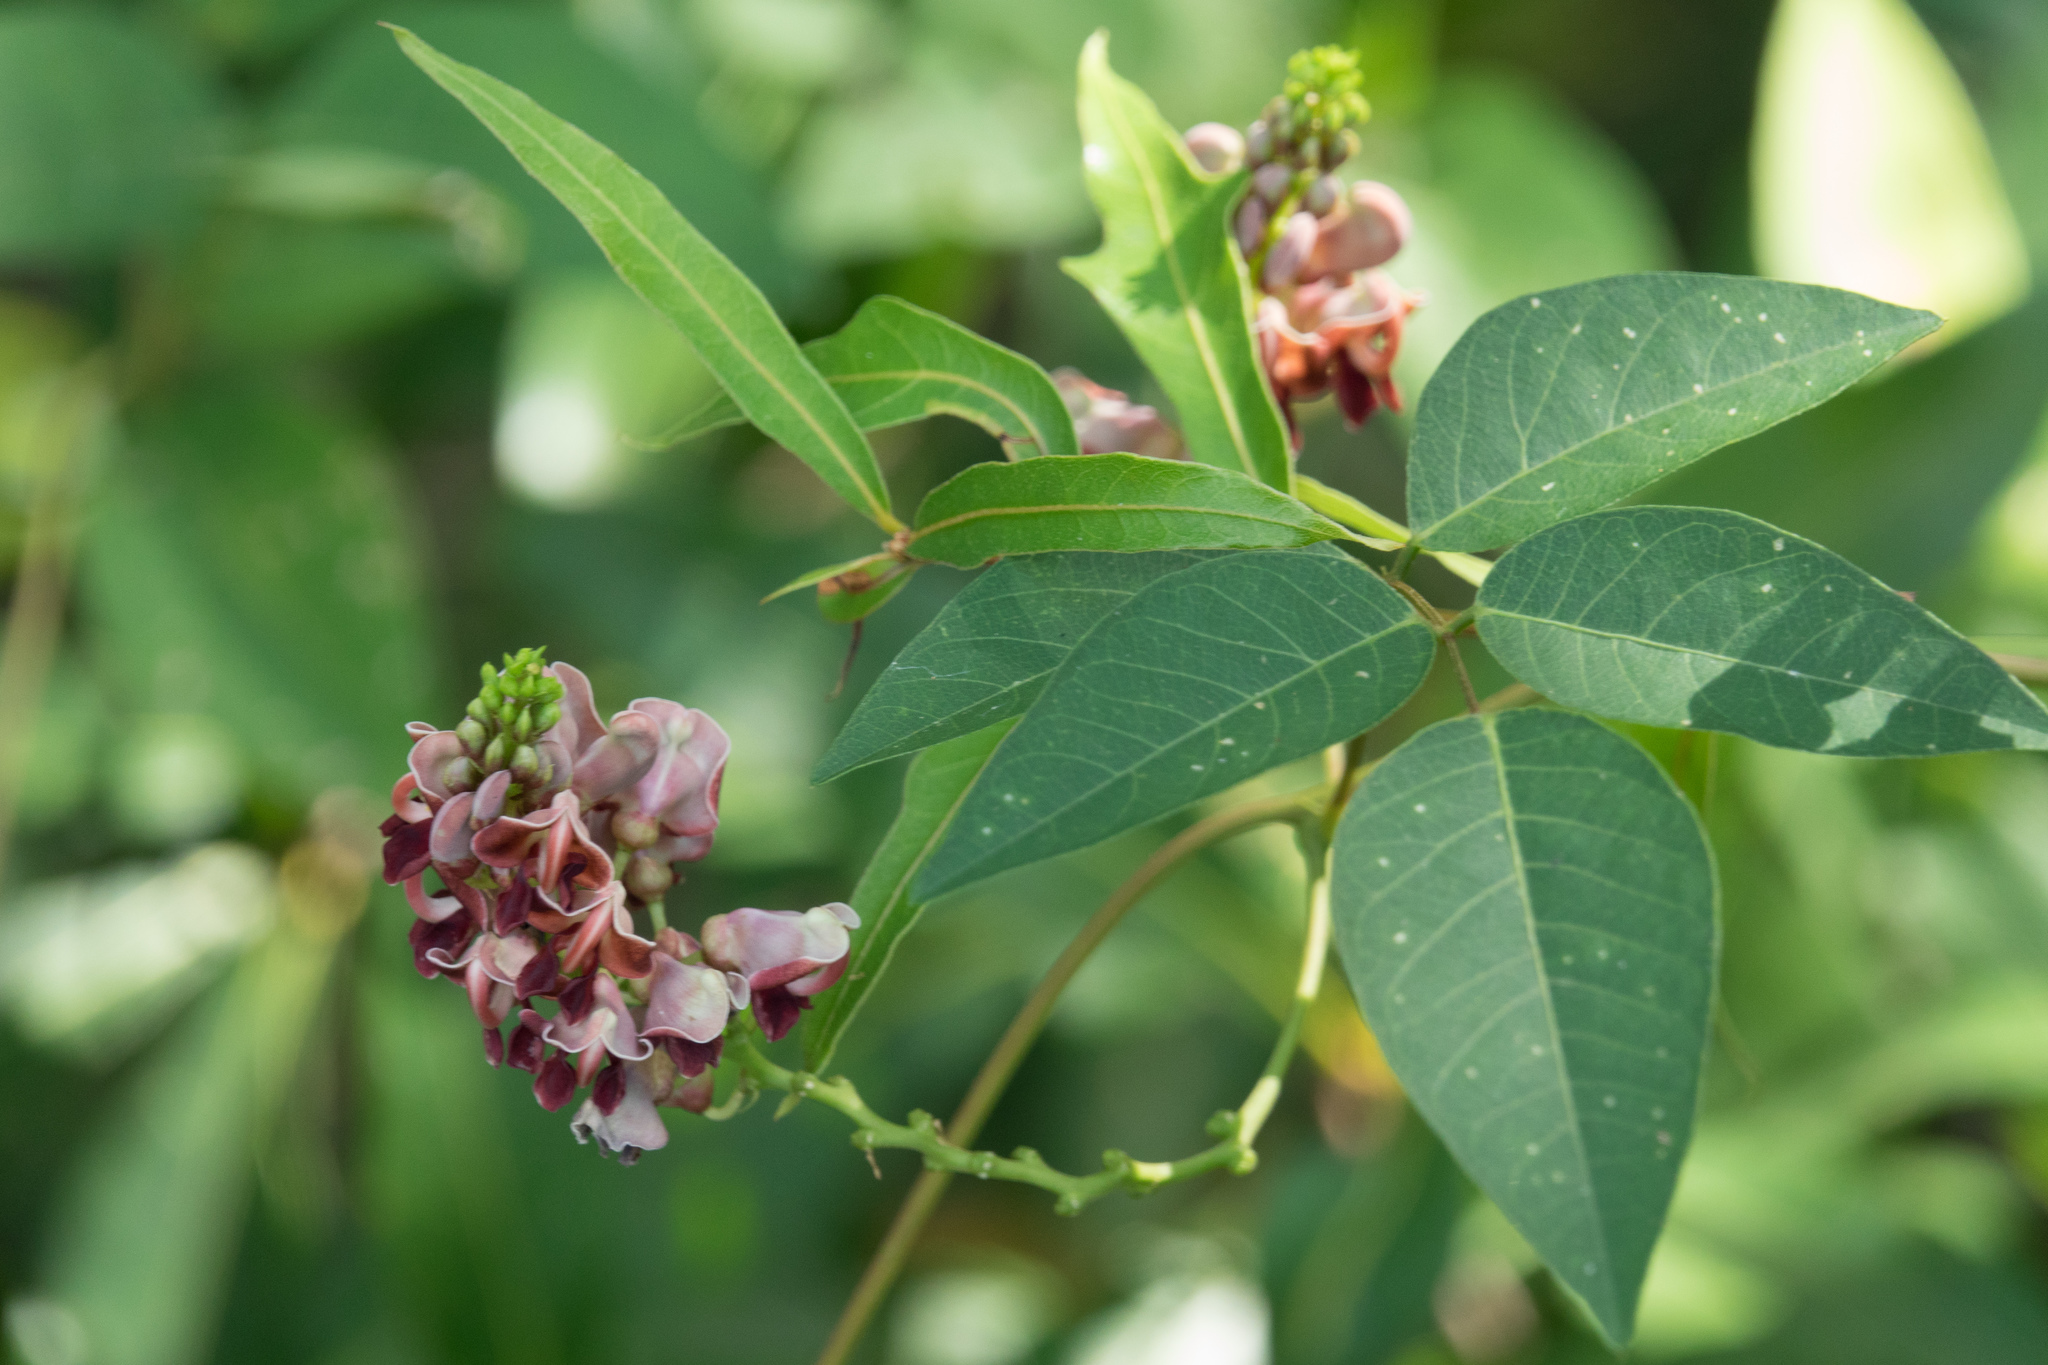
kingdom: Plantae
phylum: Tracheophyta
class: Magnoliopsida
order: Fabales
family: Fabaceae
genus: Apios
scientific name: Apios americana
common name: American potato-bean
